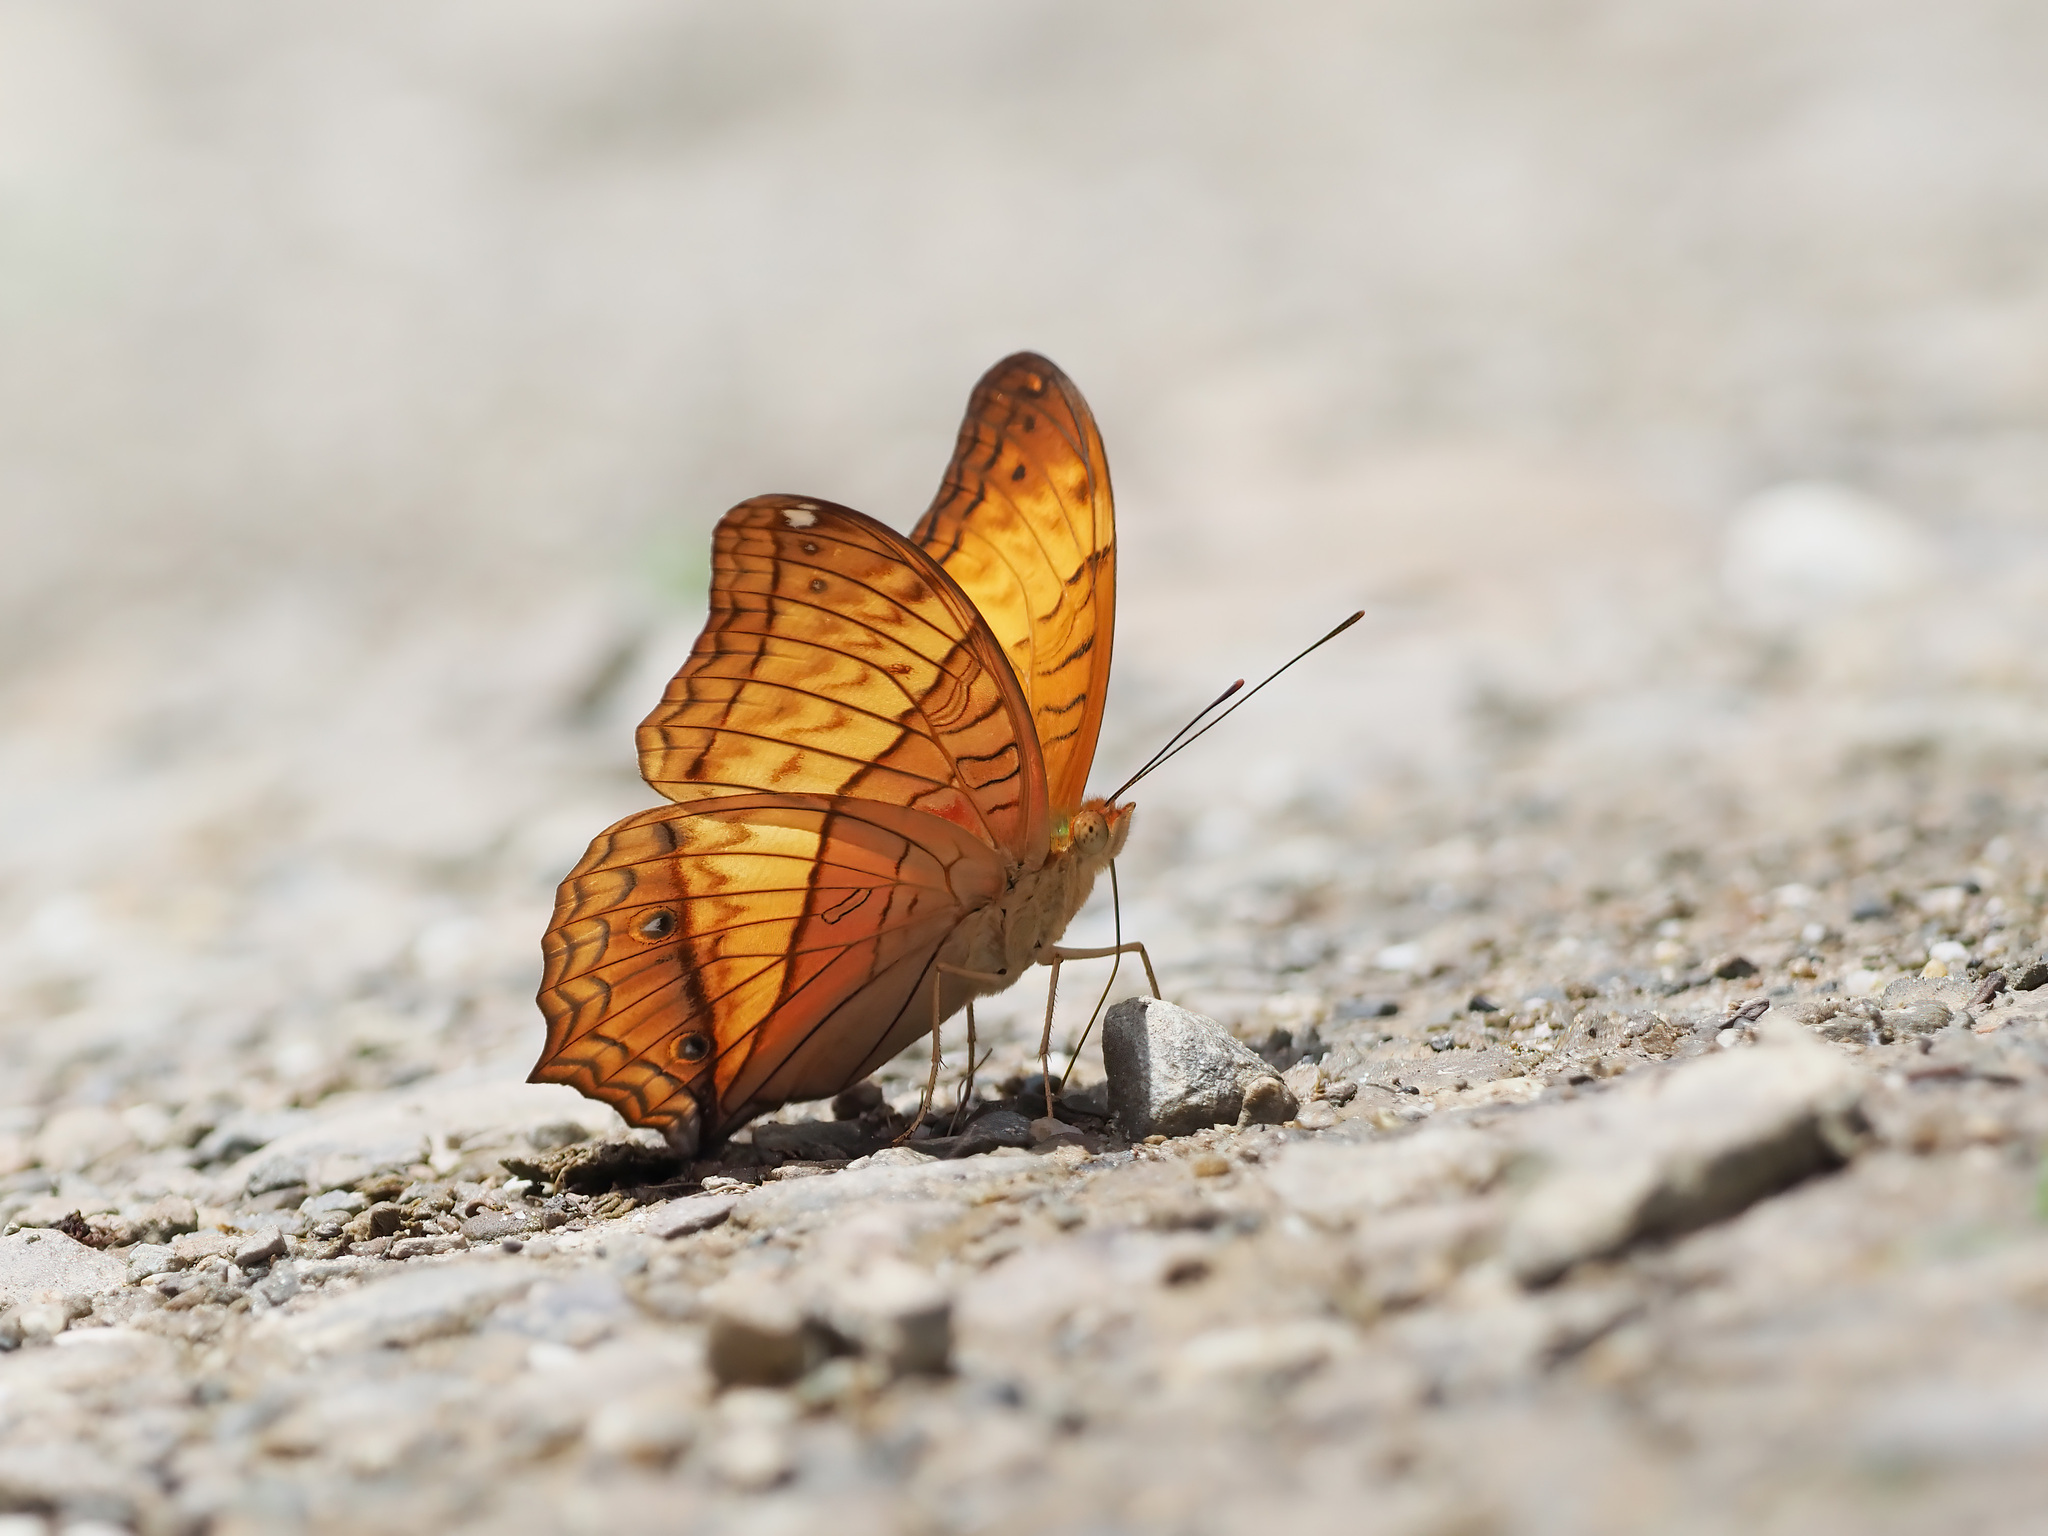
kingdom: Animalia
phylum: Arthropoda
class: Insecta
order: Lepidoptera
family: Nymphalidae
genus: Vindula
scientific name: Vindula deione
